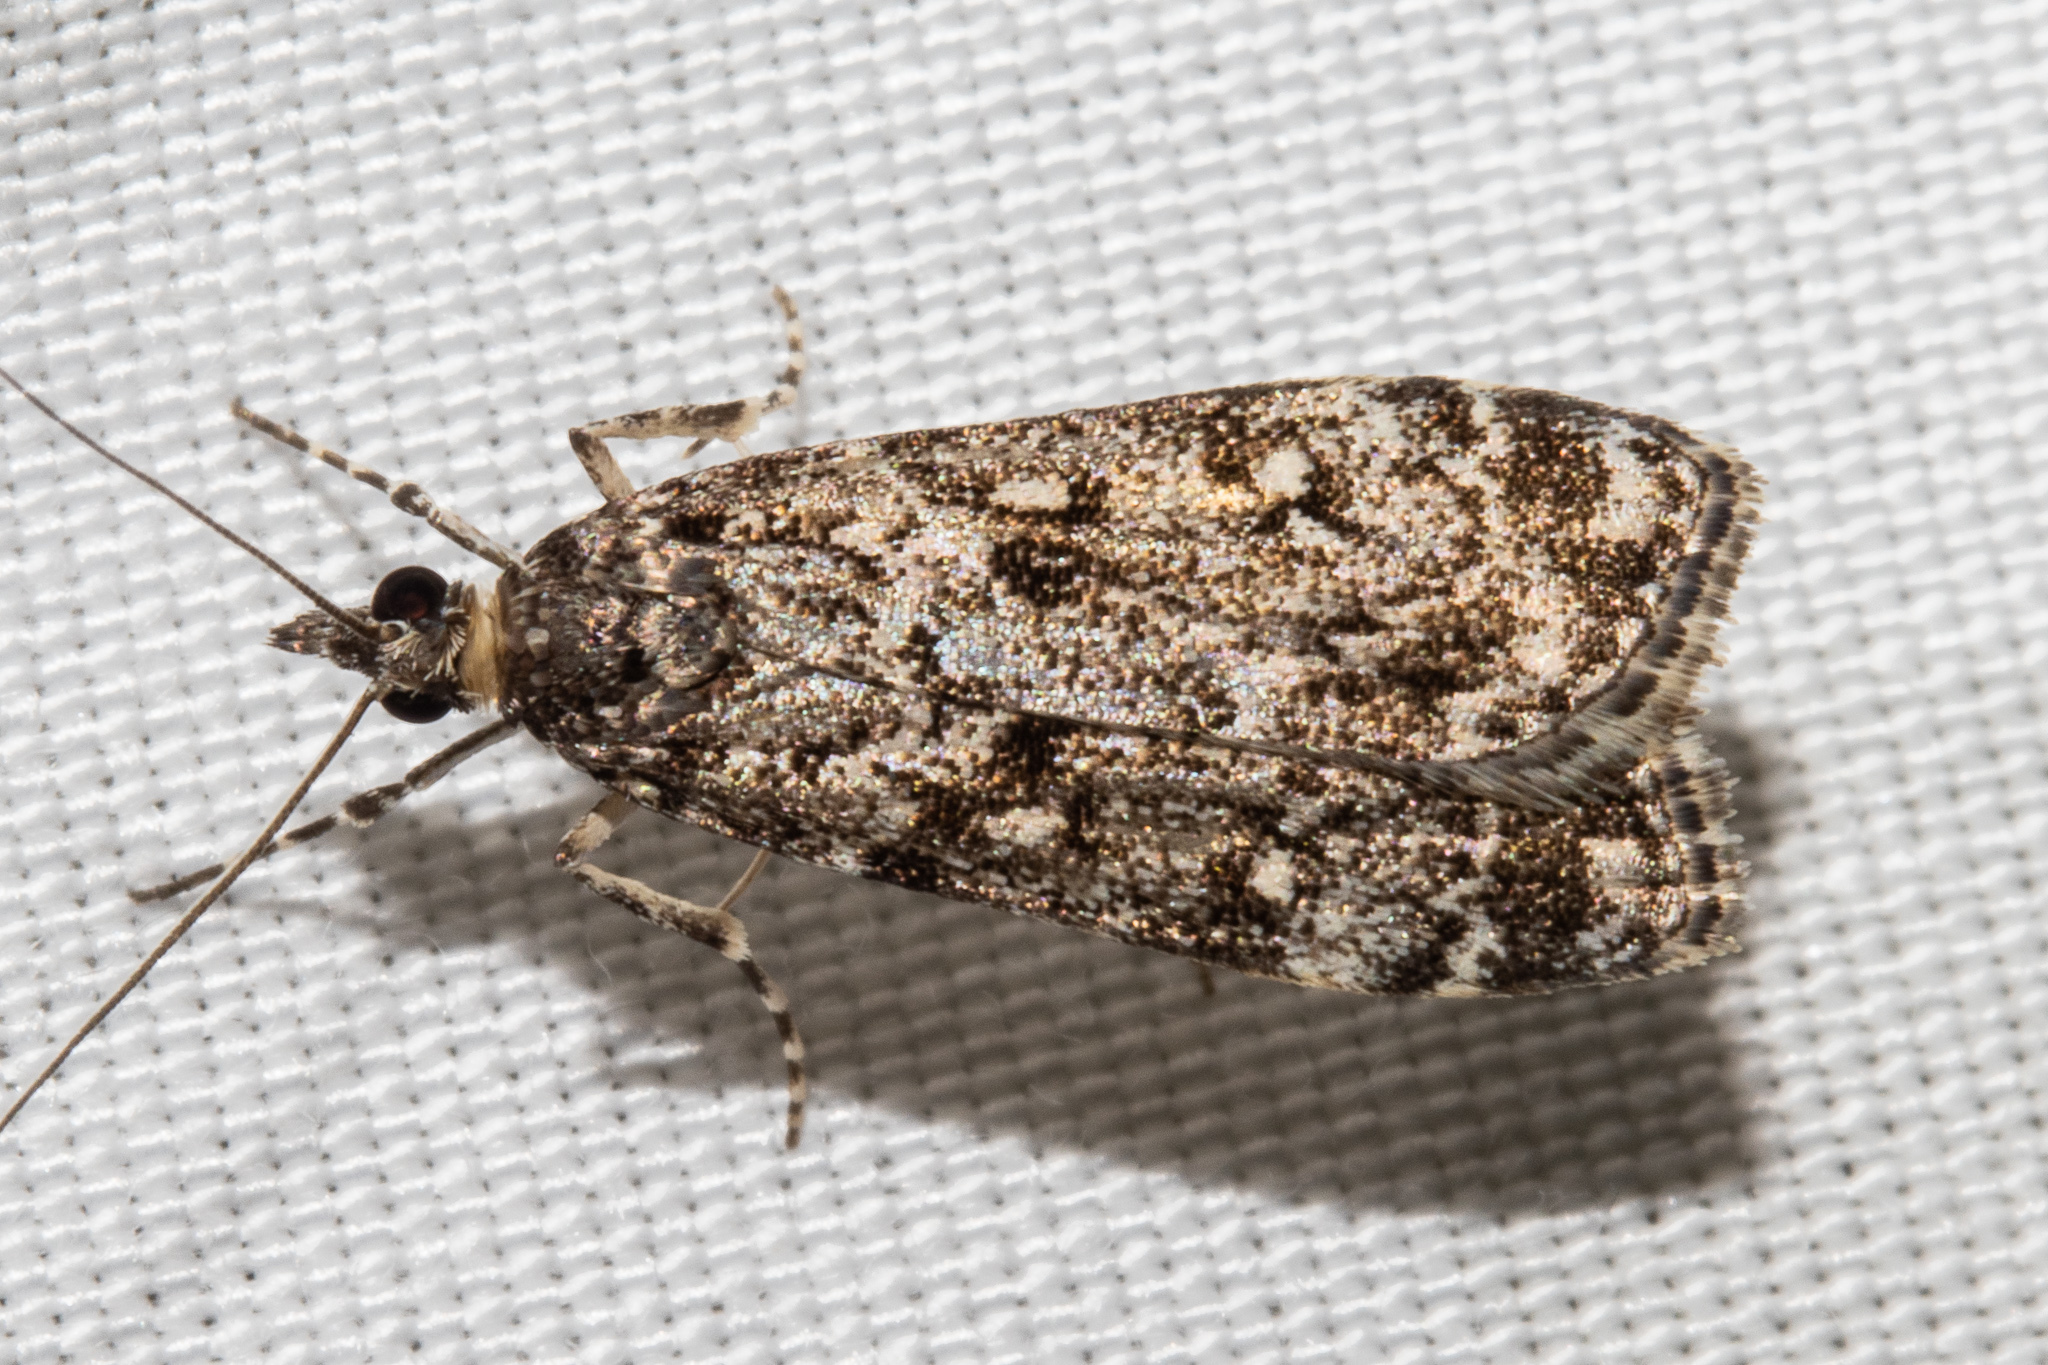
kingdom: Animalia
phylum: Arthropoda
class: Insecta
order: Lepidoptera
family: Crambidae
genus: Eudonia
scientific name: Eudonia philerga
